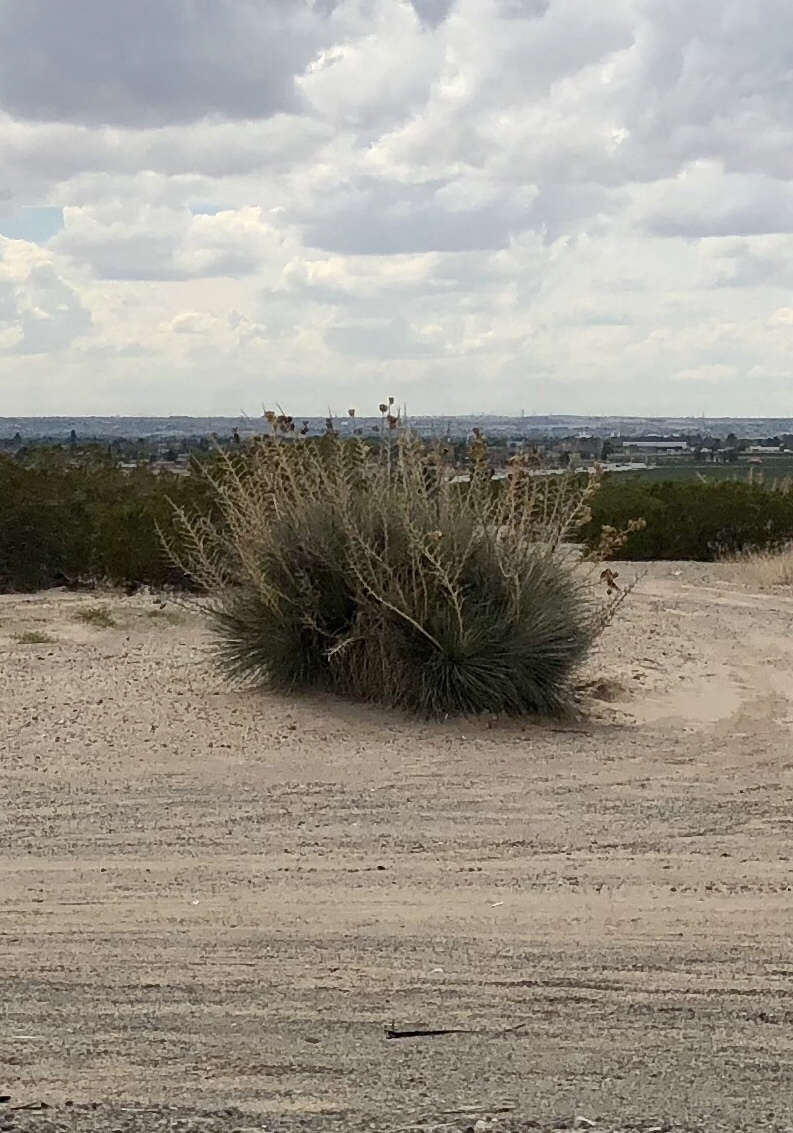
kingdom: Plantae
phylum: Tracheophyta
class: Liliopsida
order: Asparagales
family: Asparagaceae
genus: Yucca
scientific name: Yucca elata
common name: Palmella
